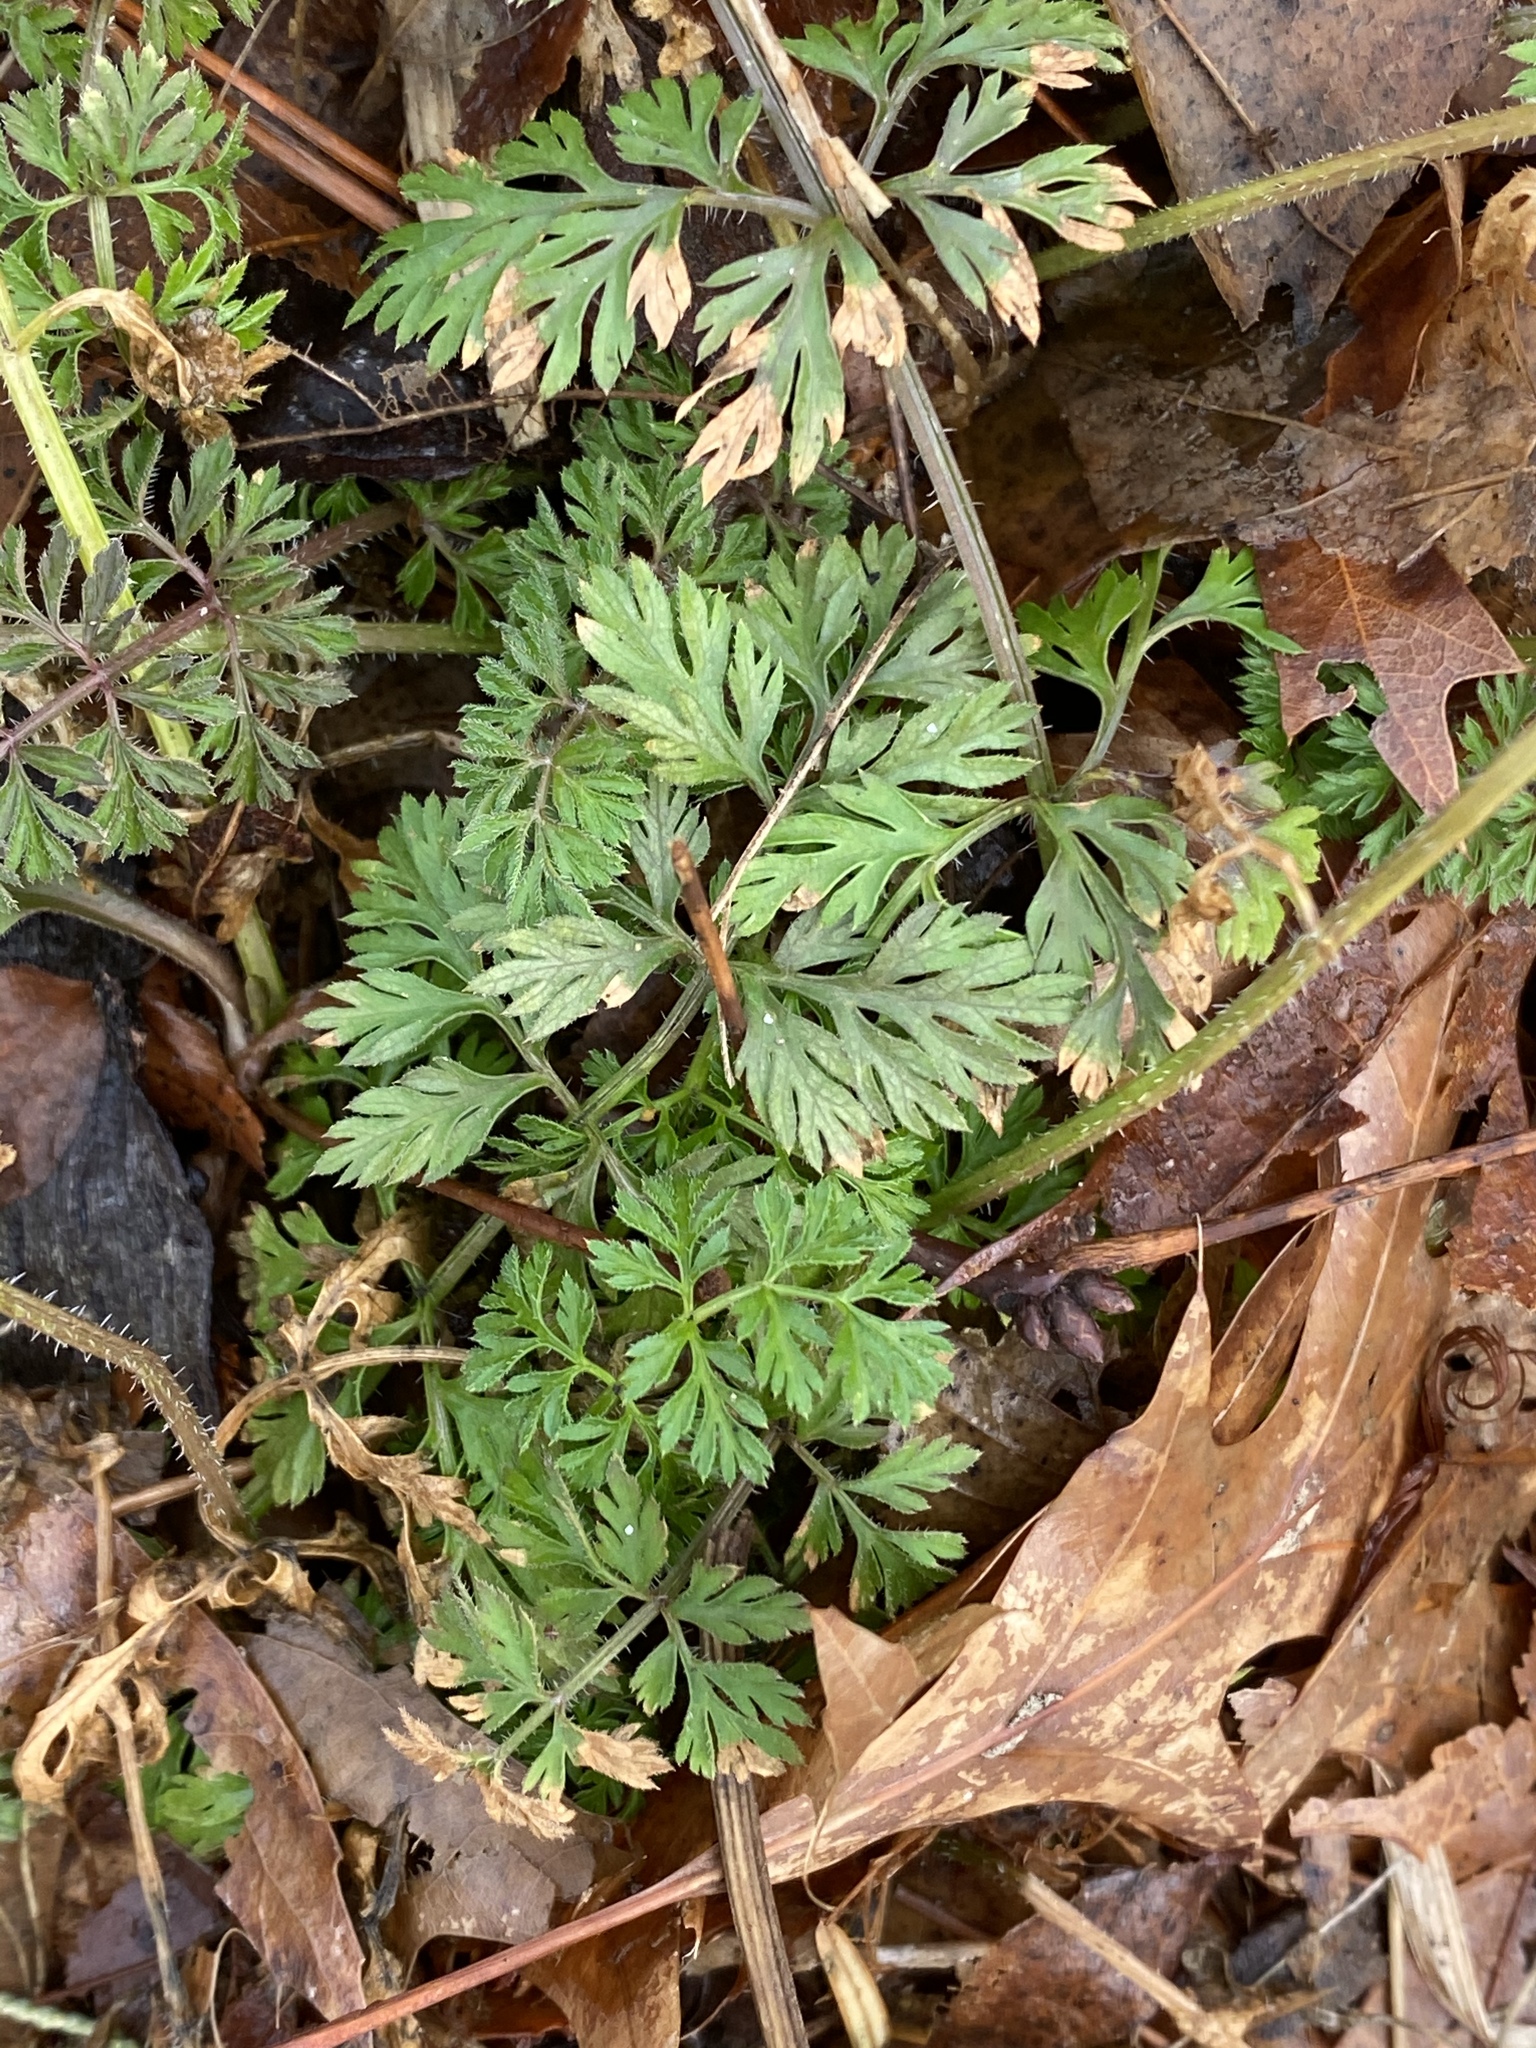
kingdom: Plantae
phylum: Tracheophyta
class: Magnoliopsida
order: Apiales
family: Apiaceae
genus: Daucus
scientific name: Daucus carota
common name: Wild carrot
